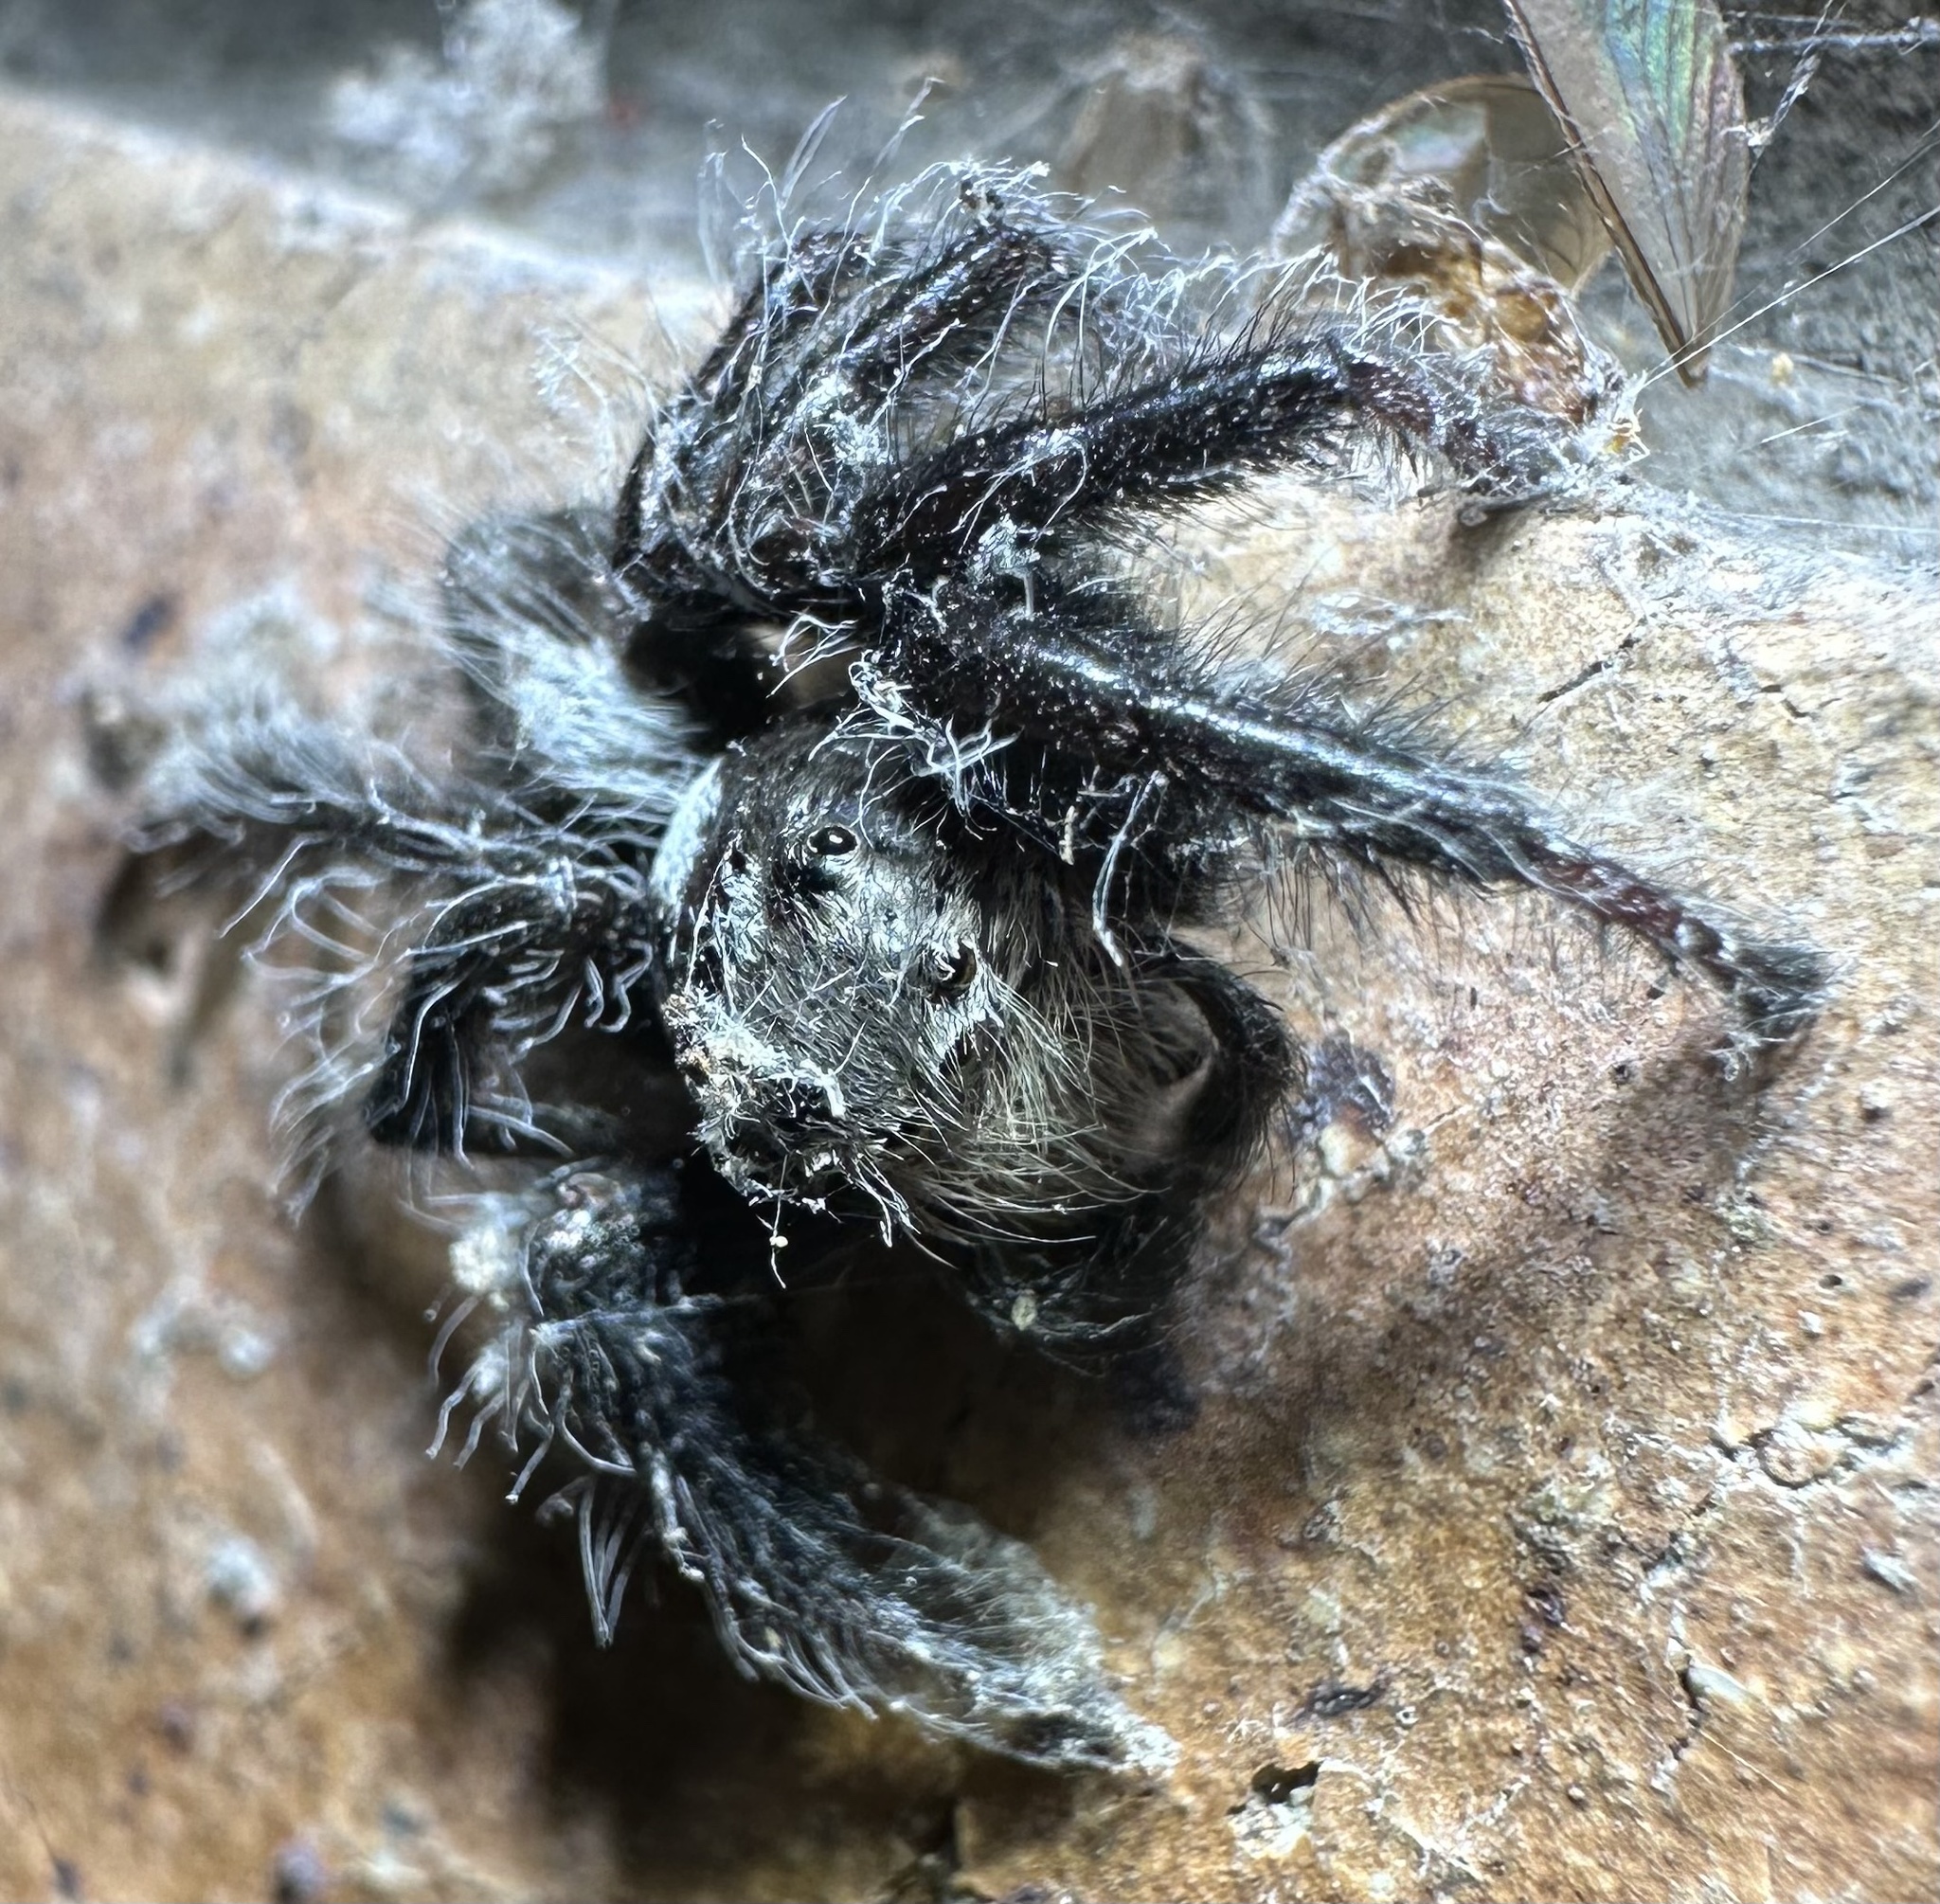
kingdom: Animalia
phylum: Arthropoda
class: Arachnida
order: Araneae
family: Salticidae
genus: Hyllus
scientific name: Hyllus treleaveni
